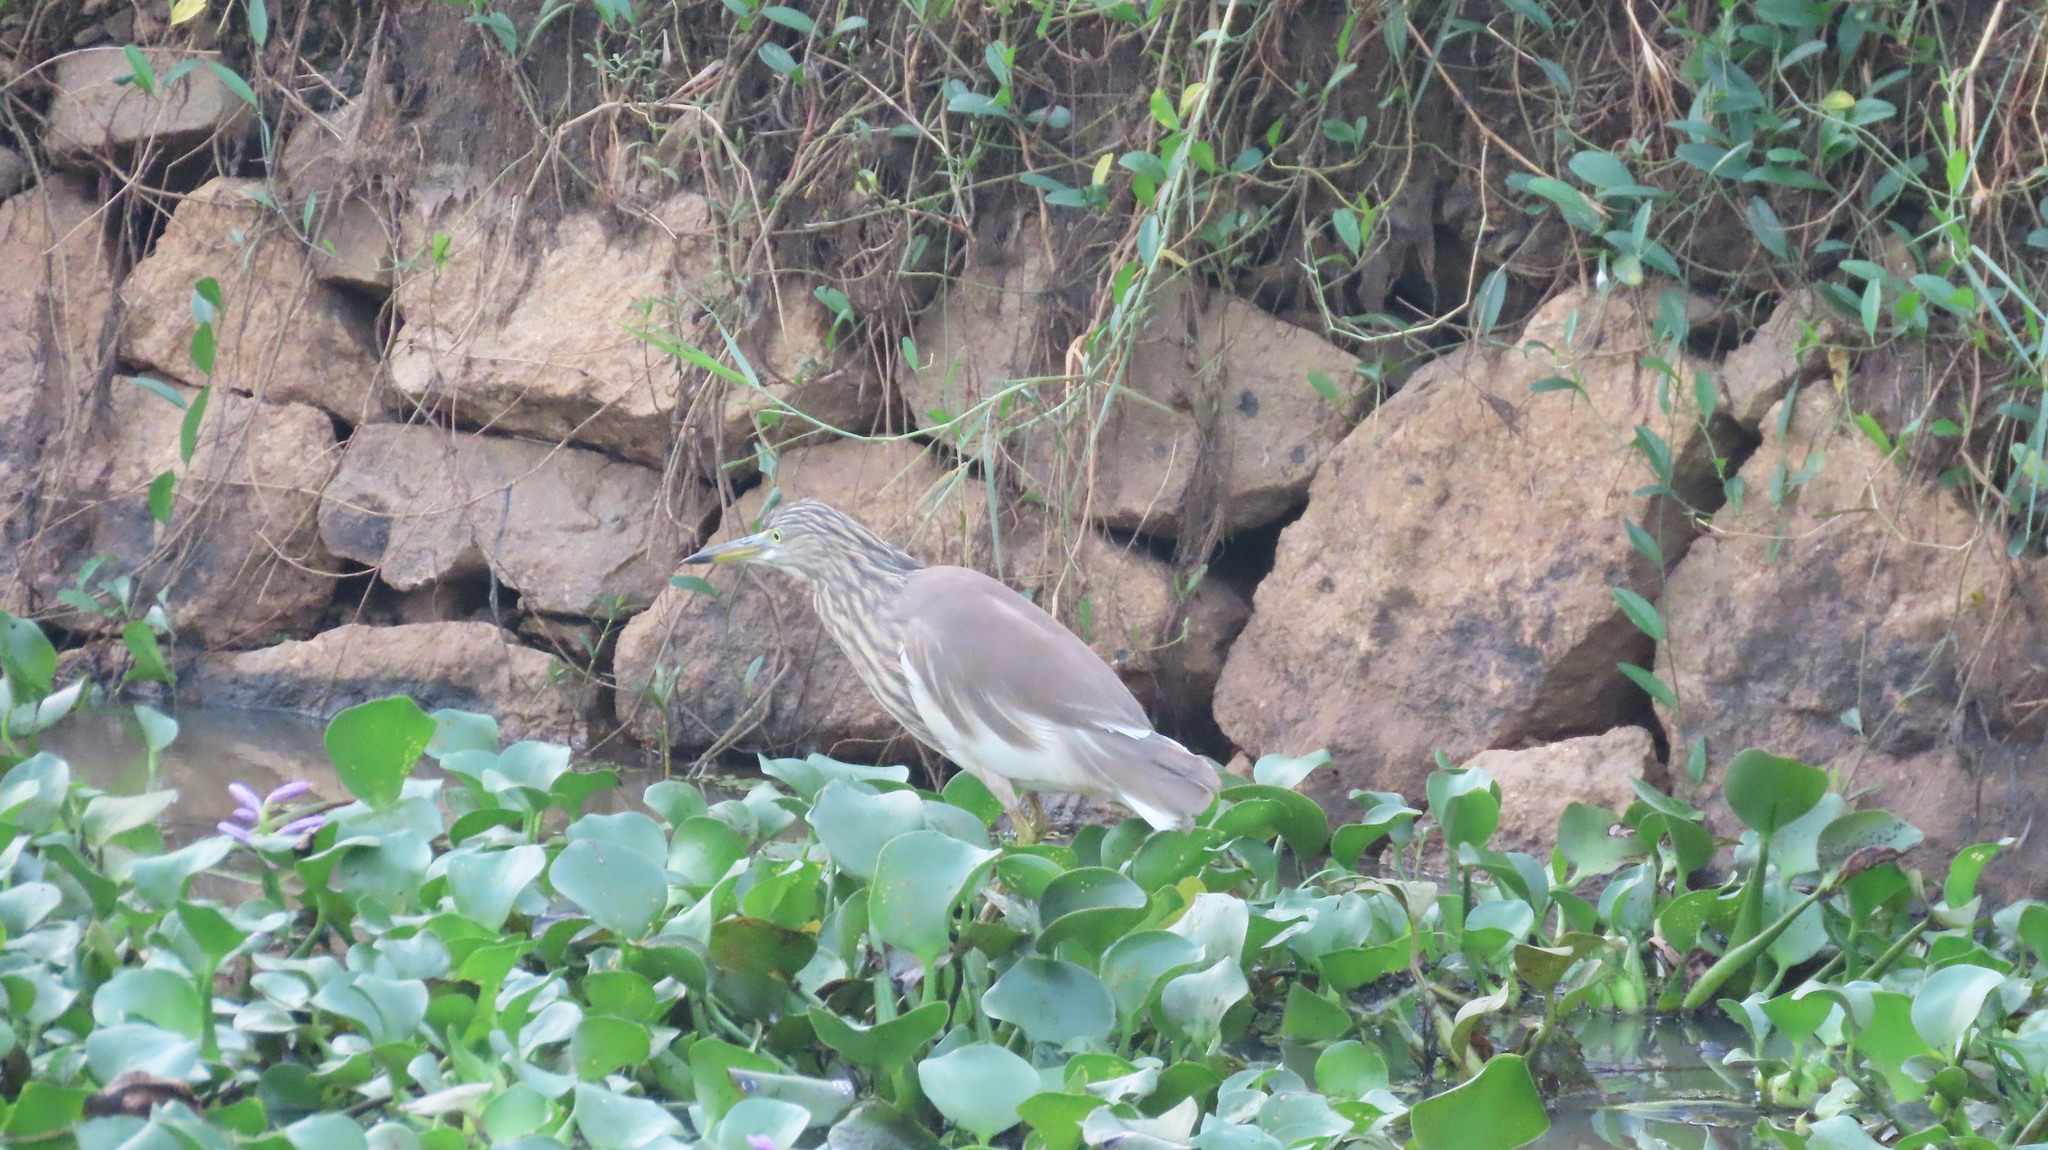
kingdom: Animalia
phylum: Chordata
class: Aves
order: Pelecaniformes
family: Ardeidae
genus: Ardeola
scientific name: Ardeola grayii
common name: Indian pond heron
